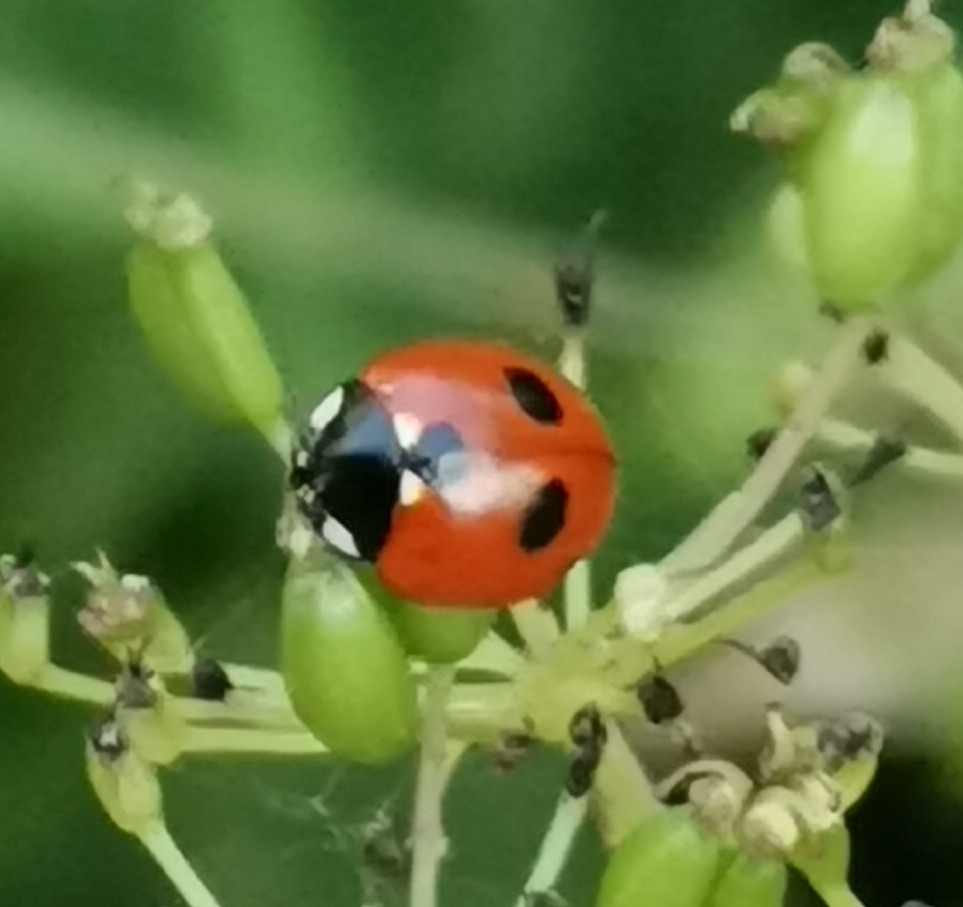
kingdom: Animalia
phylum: Arthropoda
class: Insecta
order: Coleoptera
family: Coccinellidae
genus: Coccinella
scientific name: Coccinella quinquepunctata
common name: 5-spot ladybird
